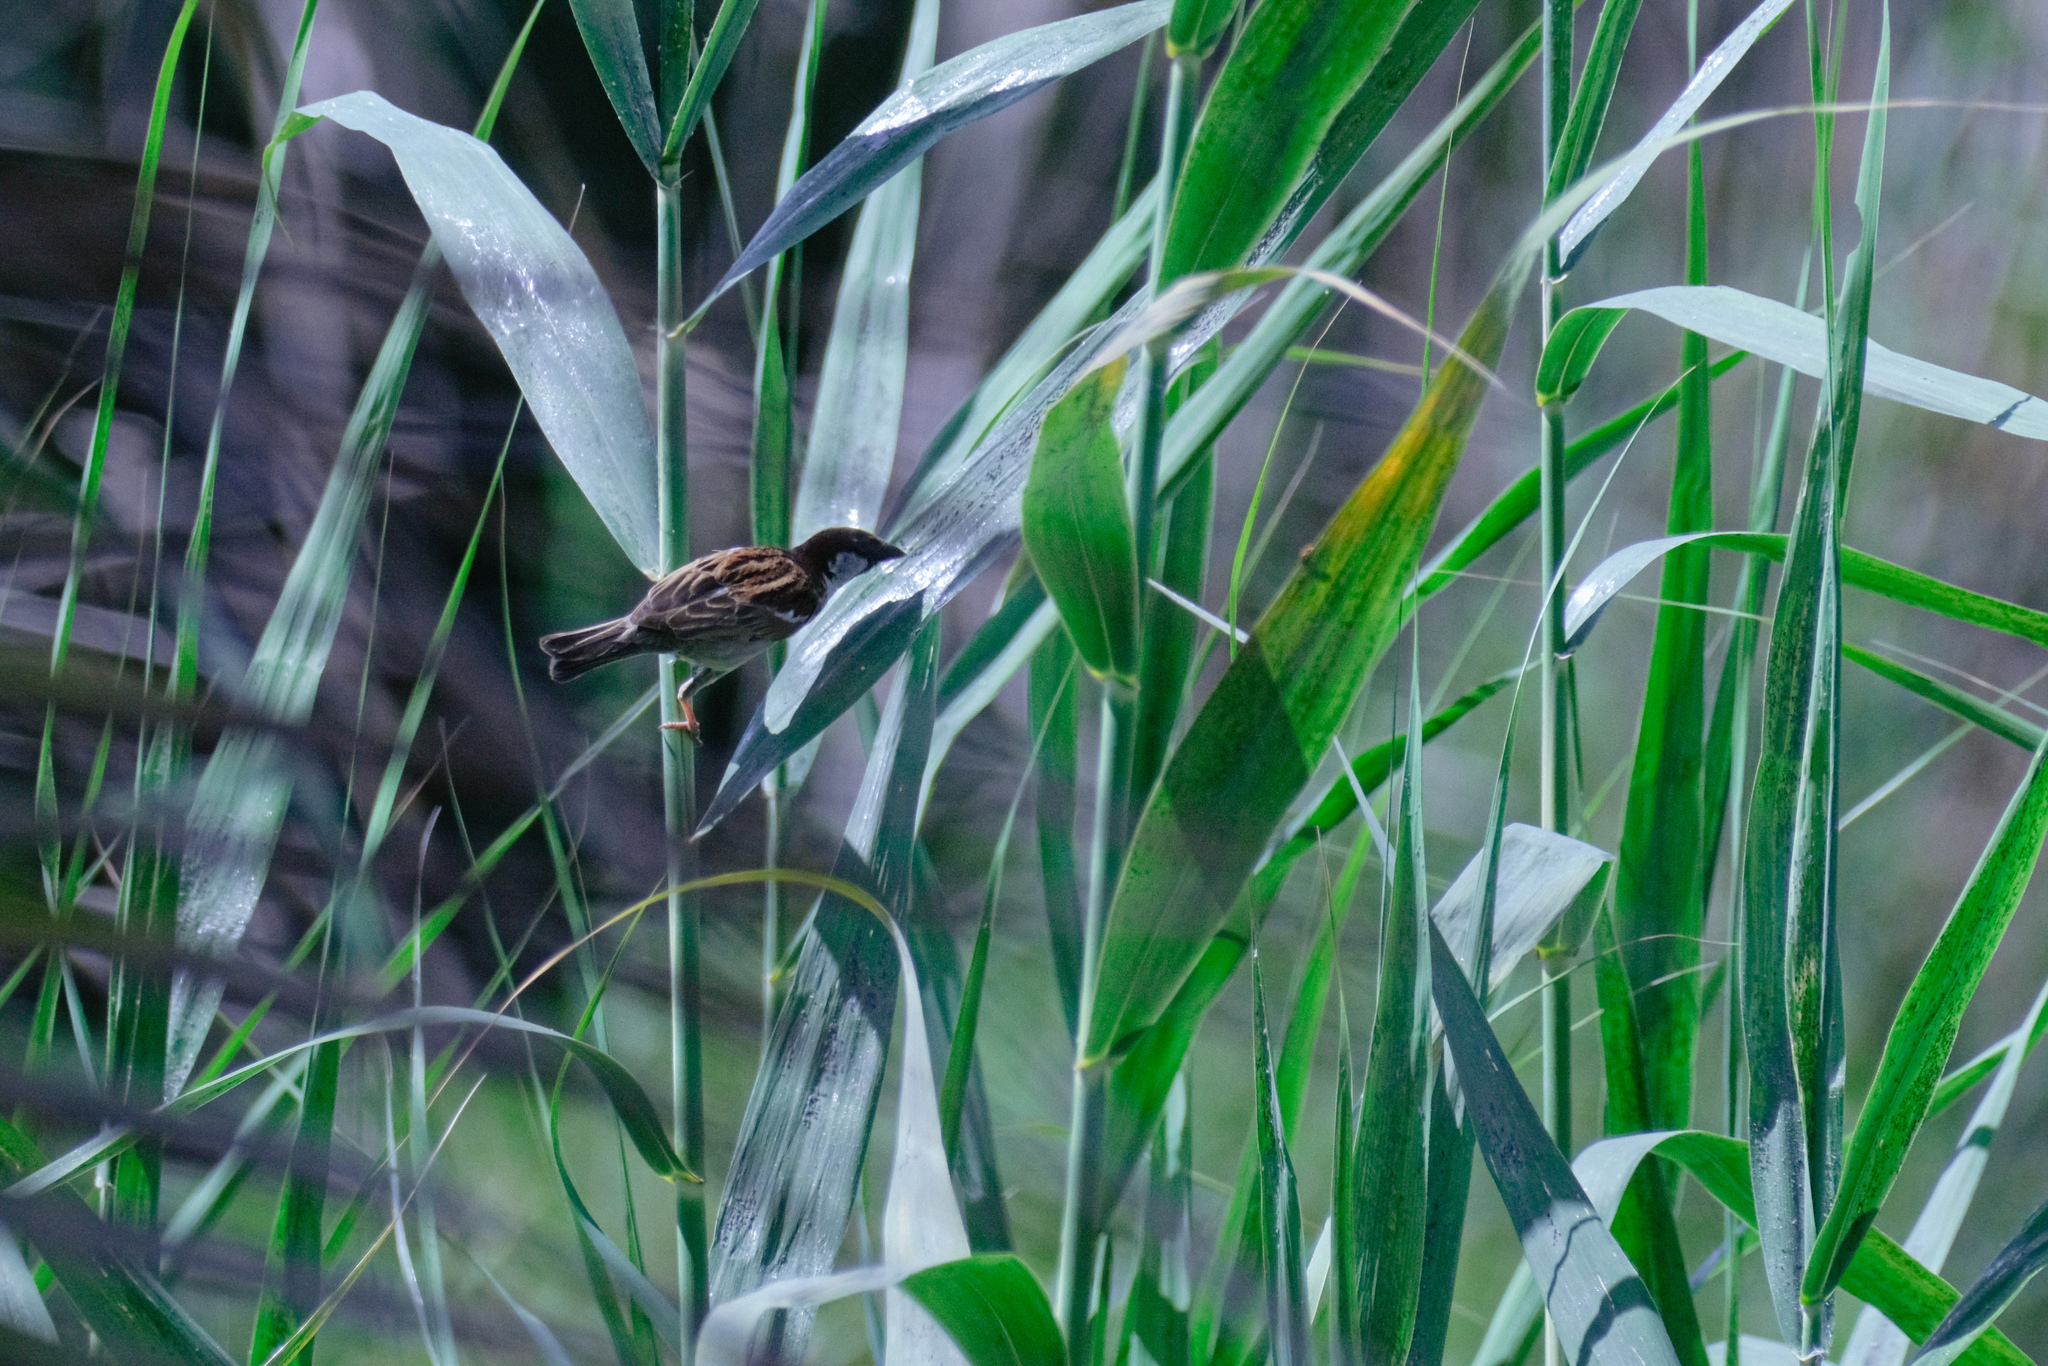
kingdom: Animalia
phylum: Chordata
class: Aves
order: Passeriformes
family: Passeridae
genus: Passer
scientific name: Passer domesticus
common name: House sparrow
